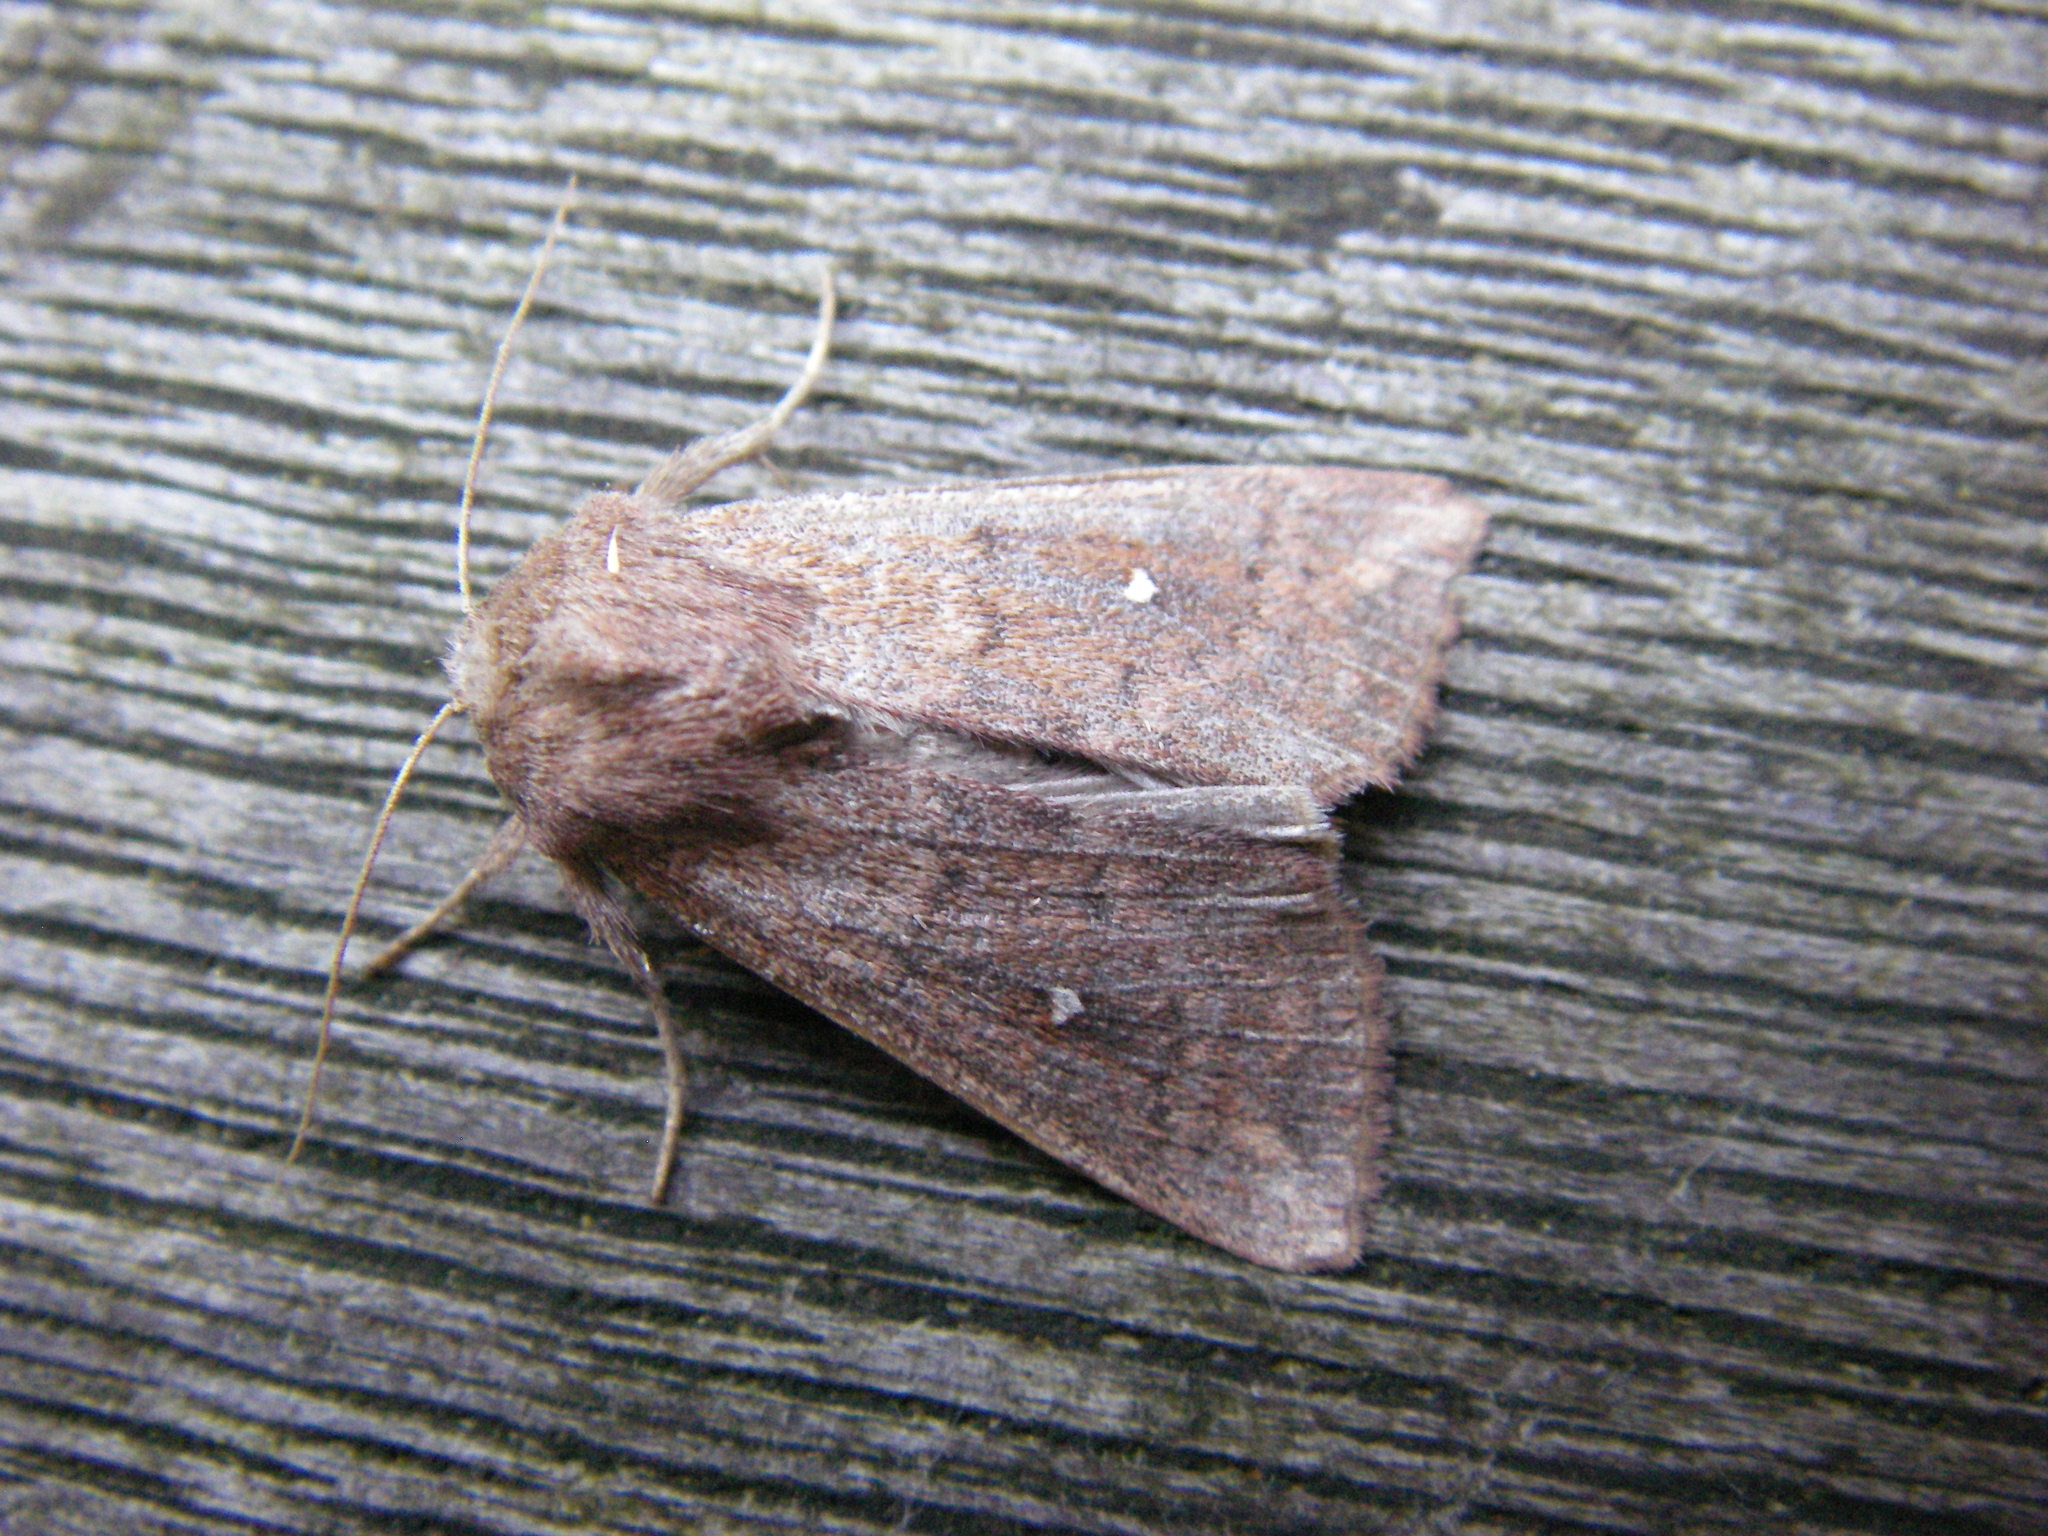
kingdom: Animalia
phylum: Arthropoda
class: Insecta
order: Lepidoptera
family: Noctuidae
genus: Mythimna
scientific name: Mythimna albipuncta
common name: White-point
